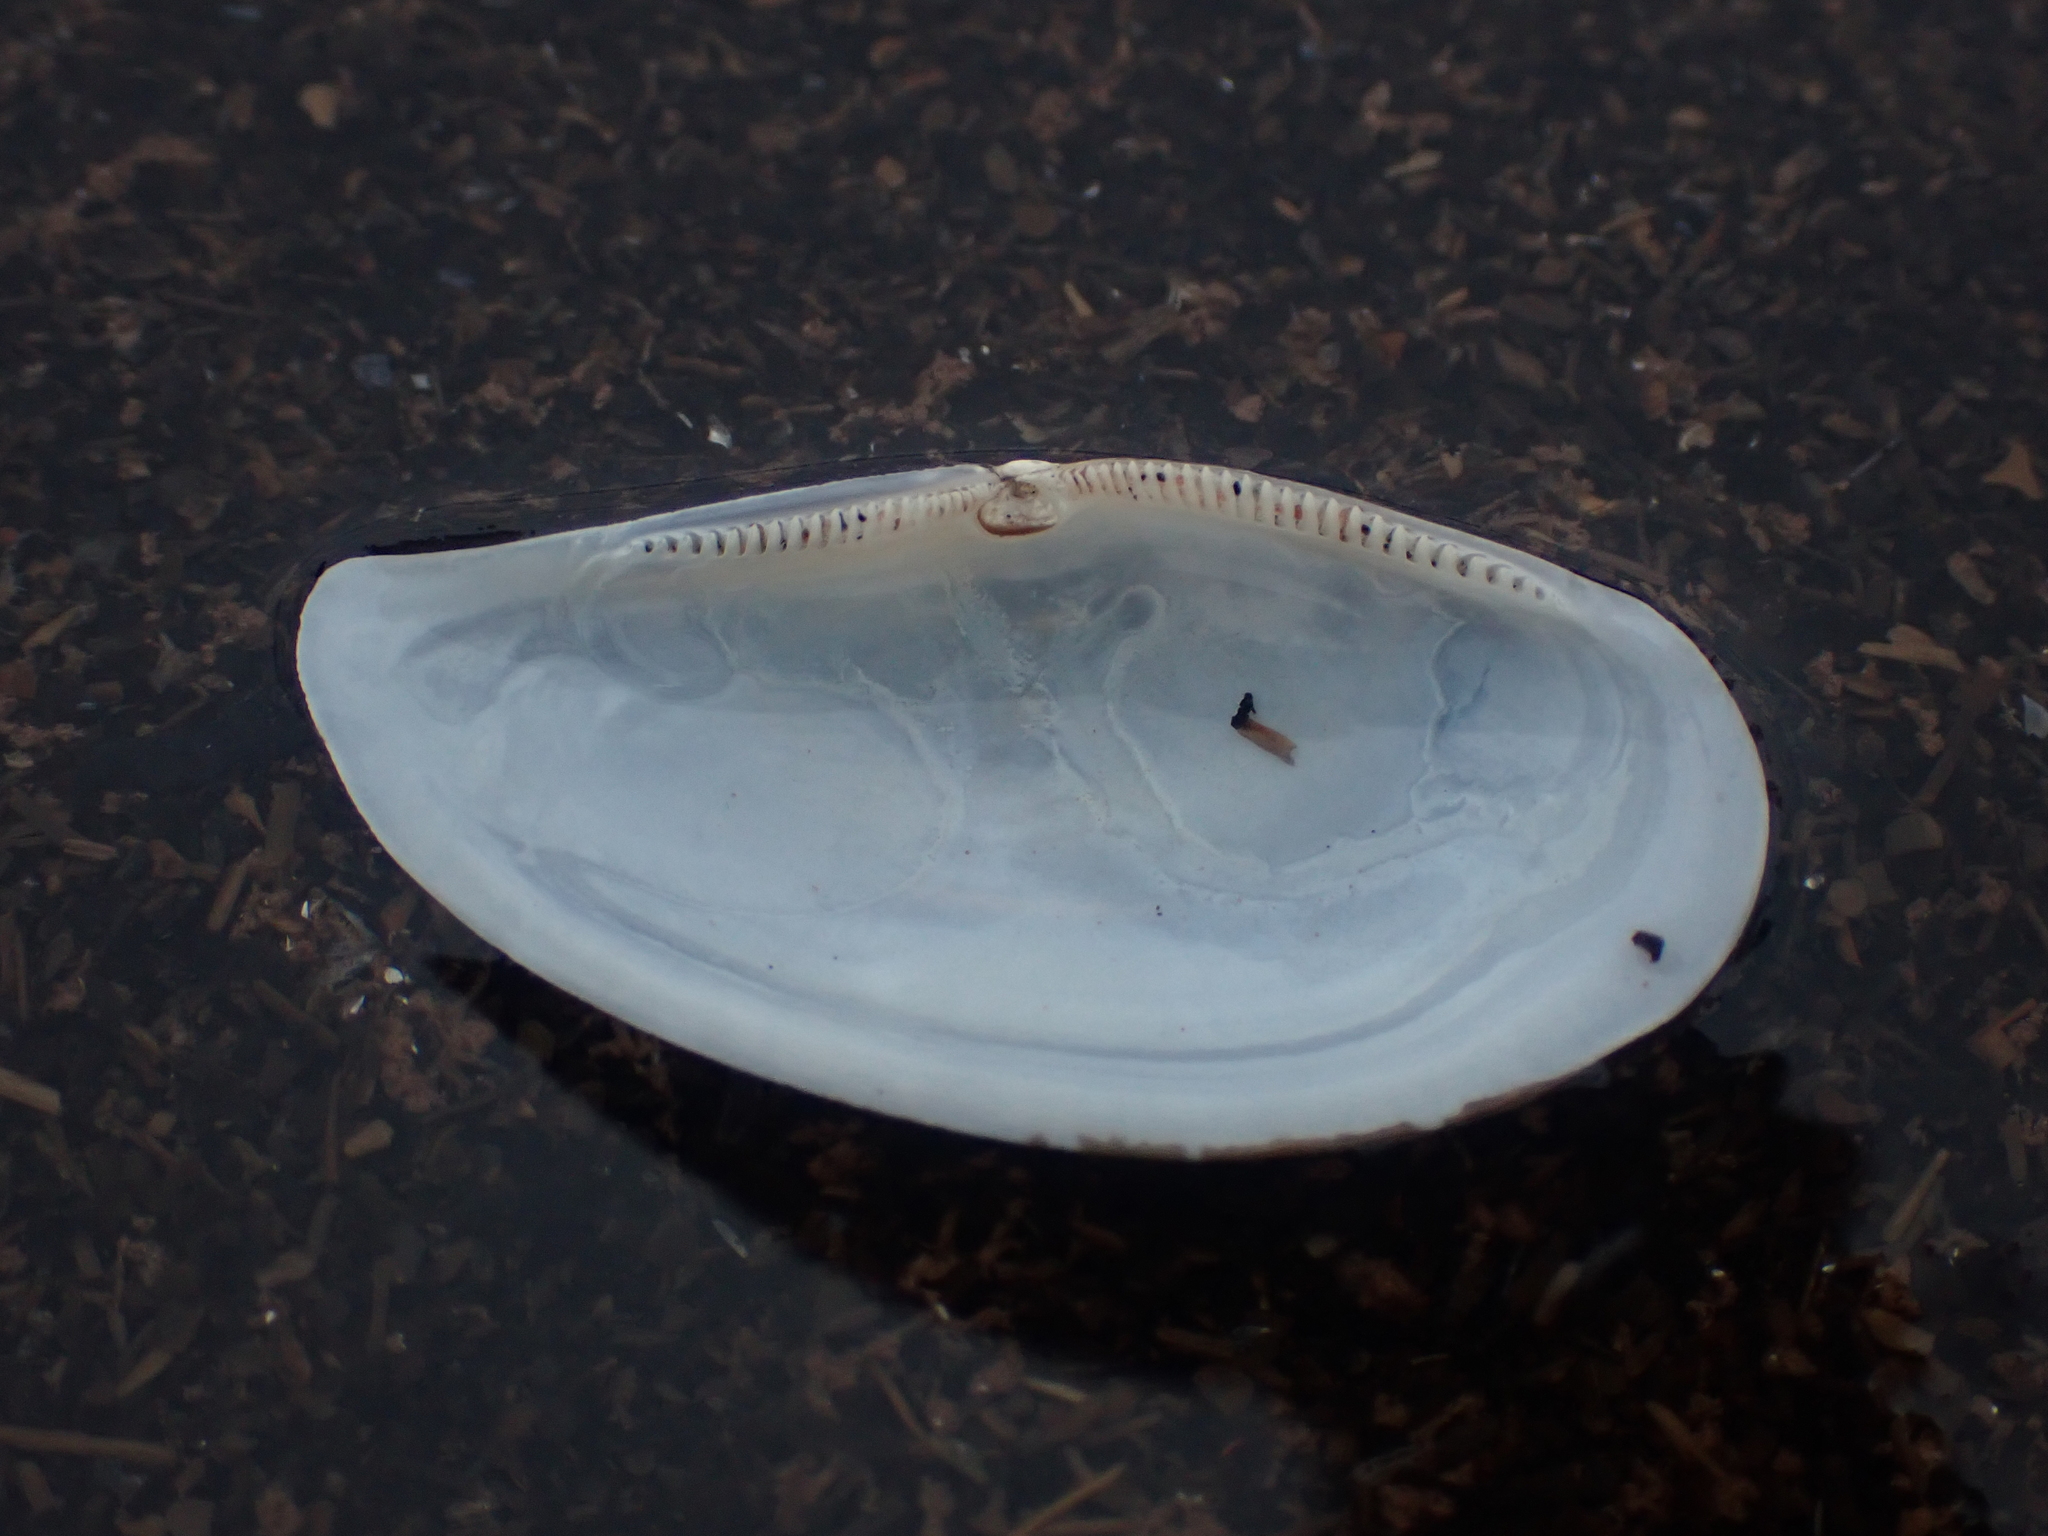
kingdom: Animalia
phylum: Mollusca
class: Bivalvia
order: Nuculanida
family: Yoldiidae
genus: Yoldia
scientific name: Yoldia limatula
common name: File yoldia
